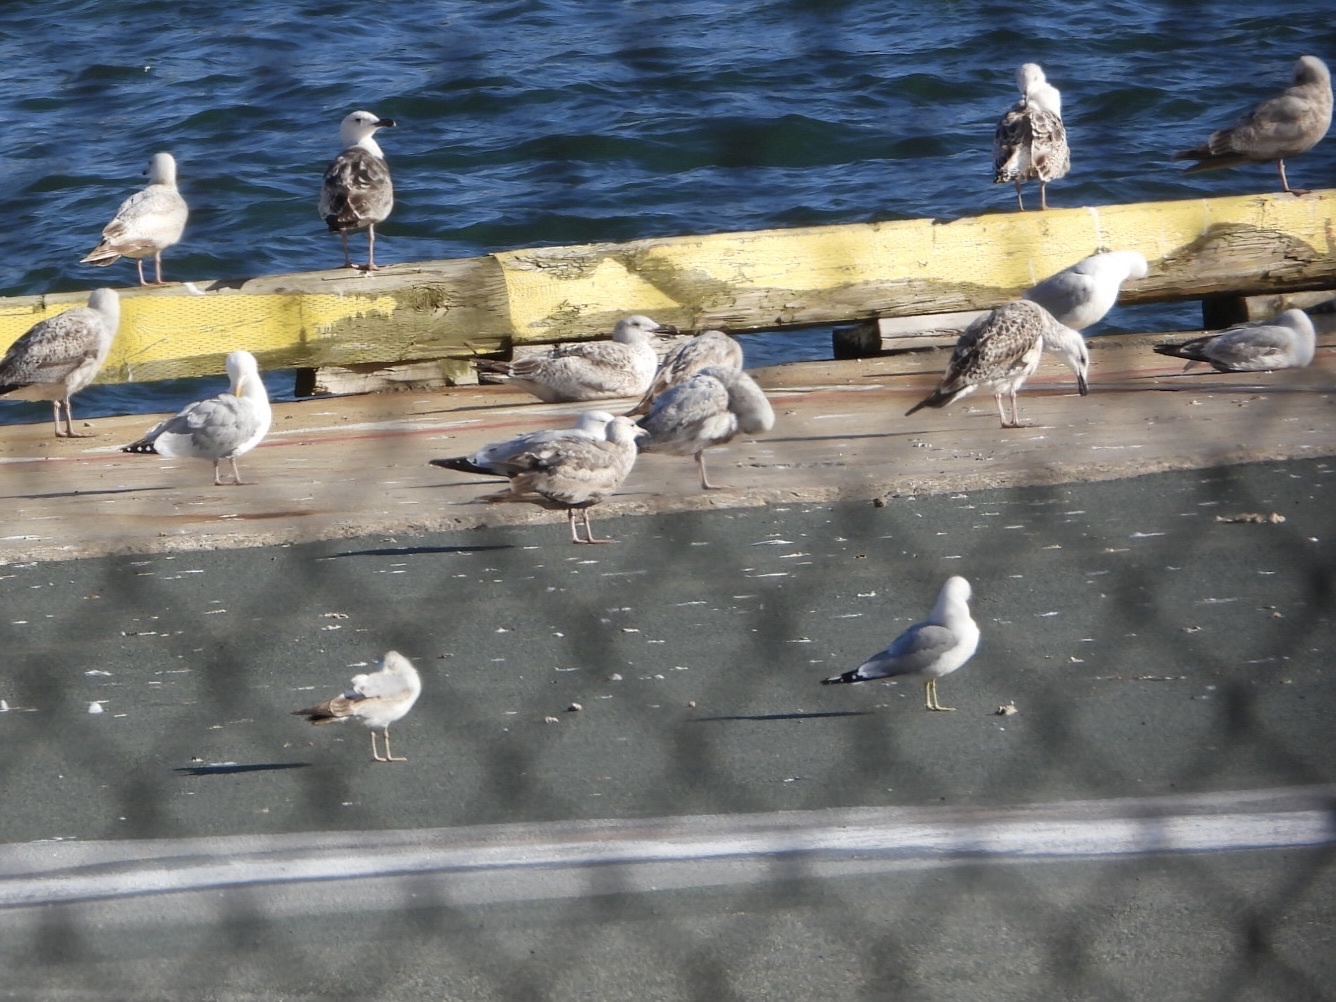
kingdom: Animalia
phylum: Chordata
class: Aves
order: Charadriiformes
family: Laridae
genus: Larus
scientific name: Larus delawarensis
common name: Ring-billed gull
